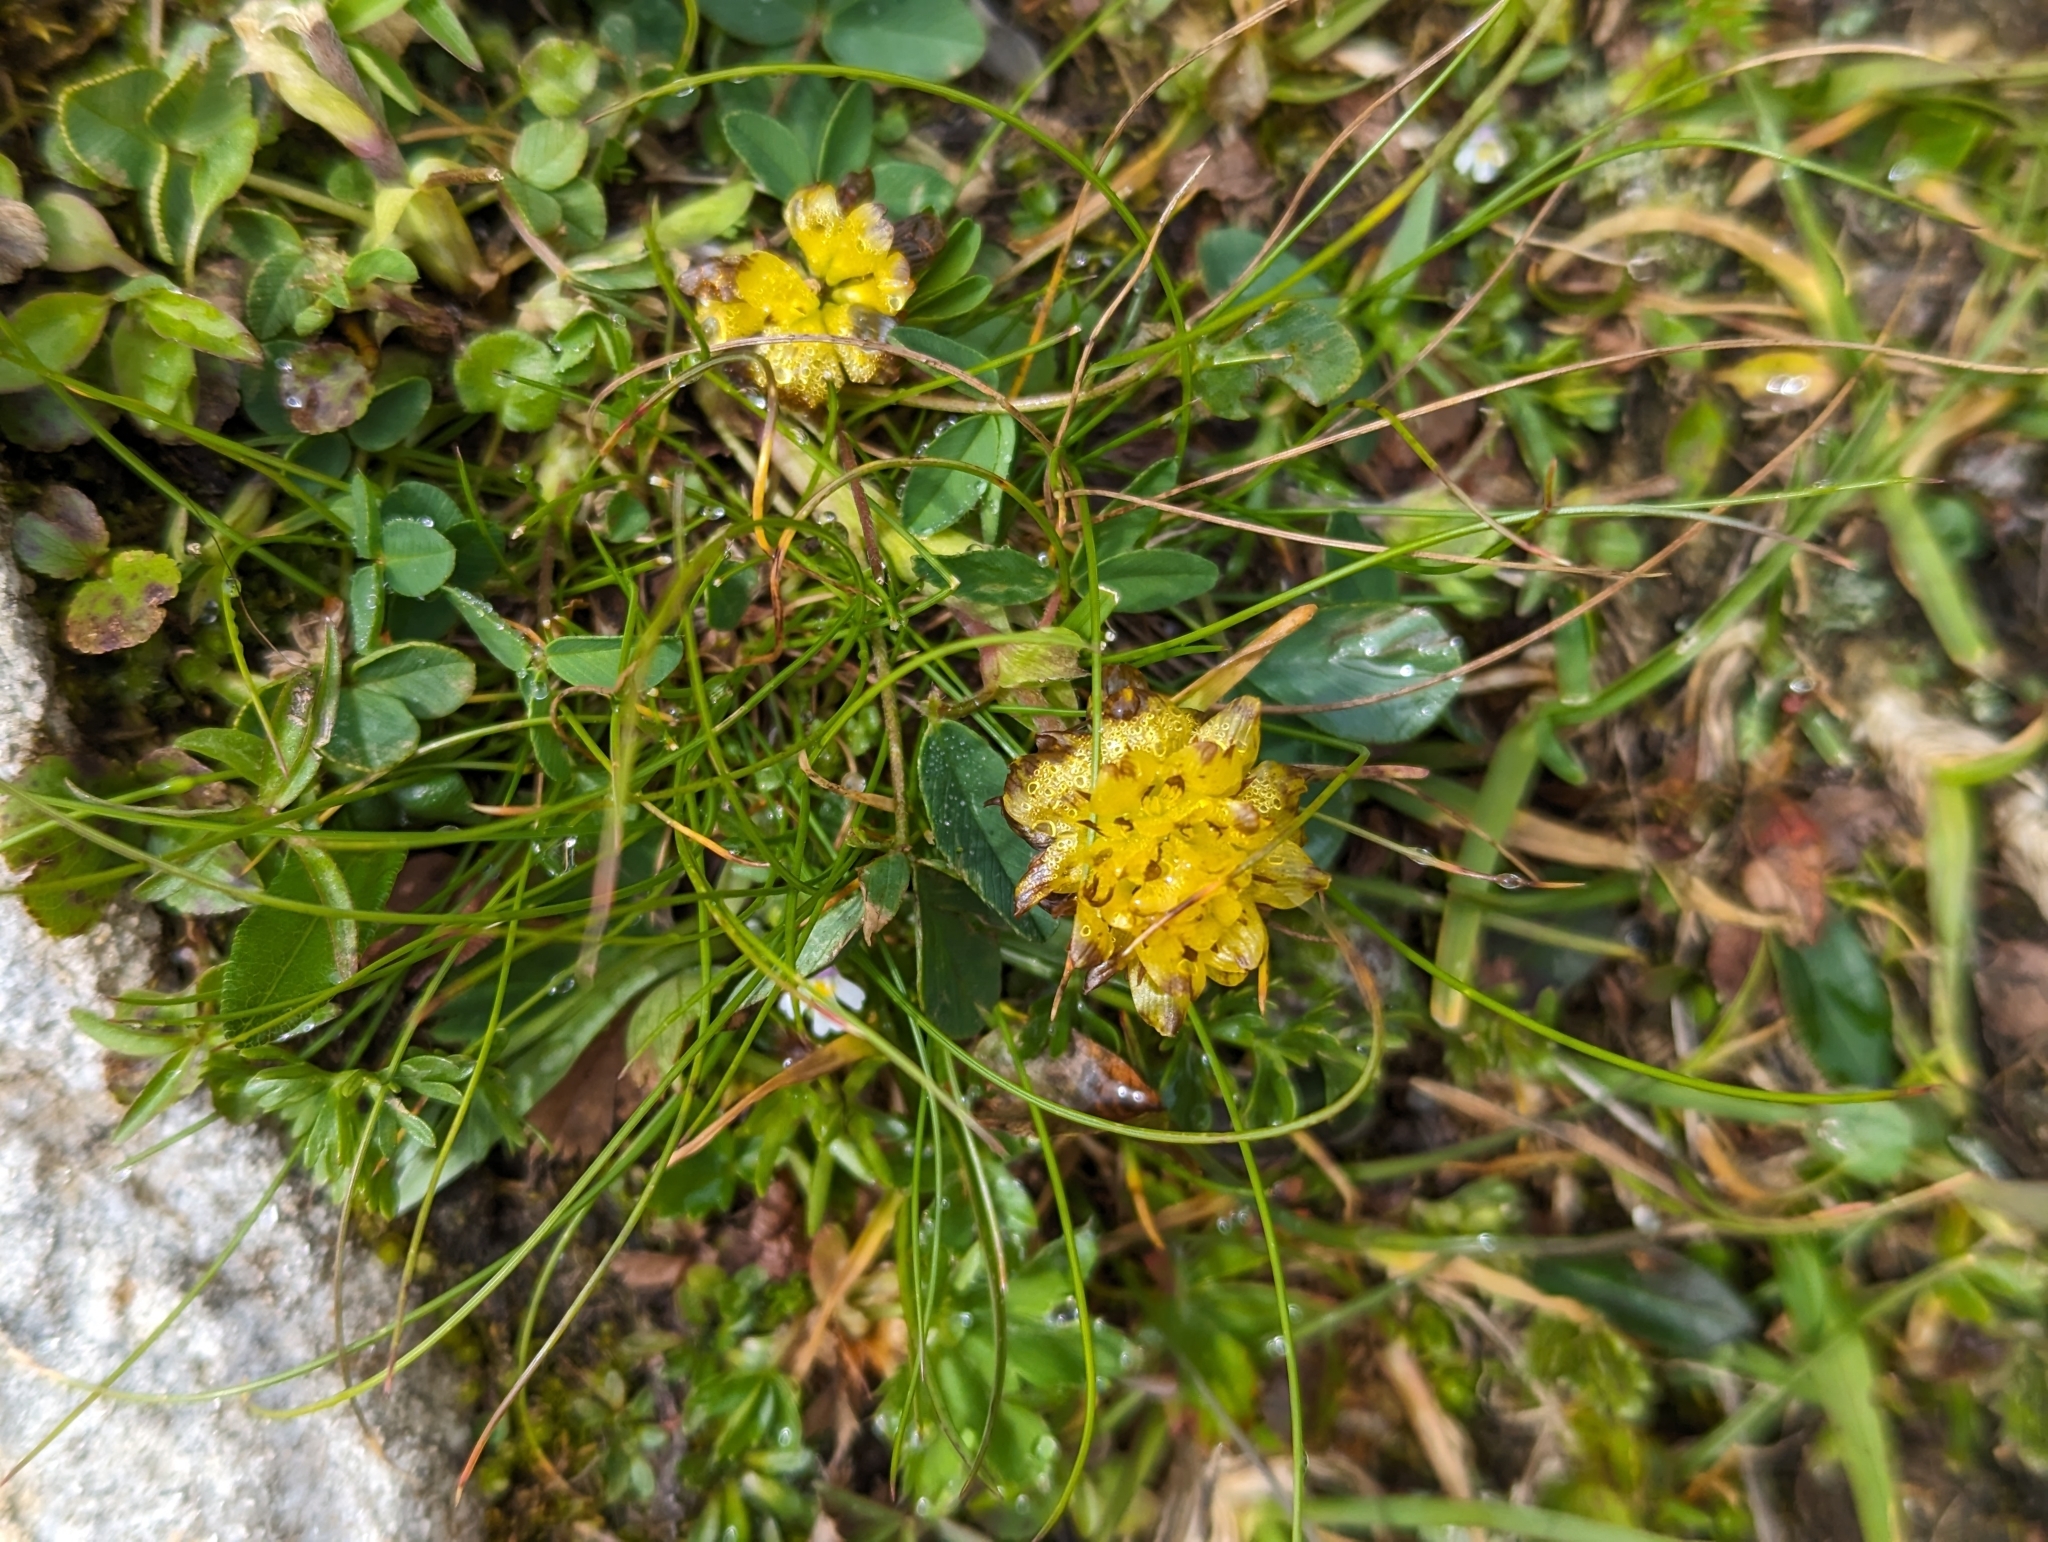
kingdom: Plantae
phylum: Tracheophyta
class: Magnoliopsida
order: Fabales
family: Fabaceae
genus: Trifolium
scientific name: Trifolium badium
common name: Brown clover
